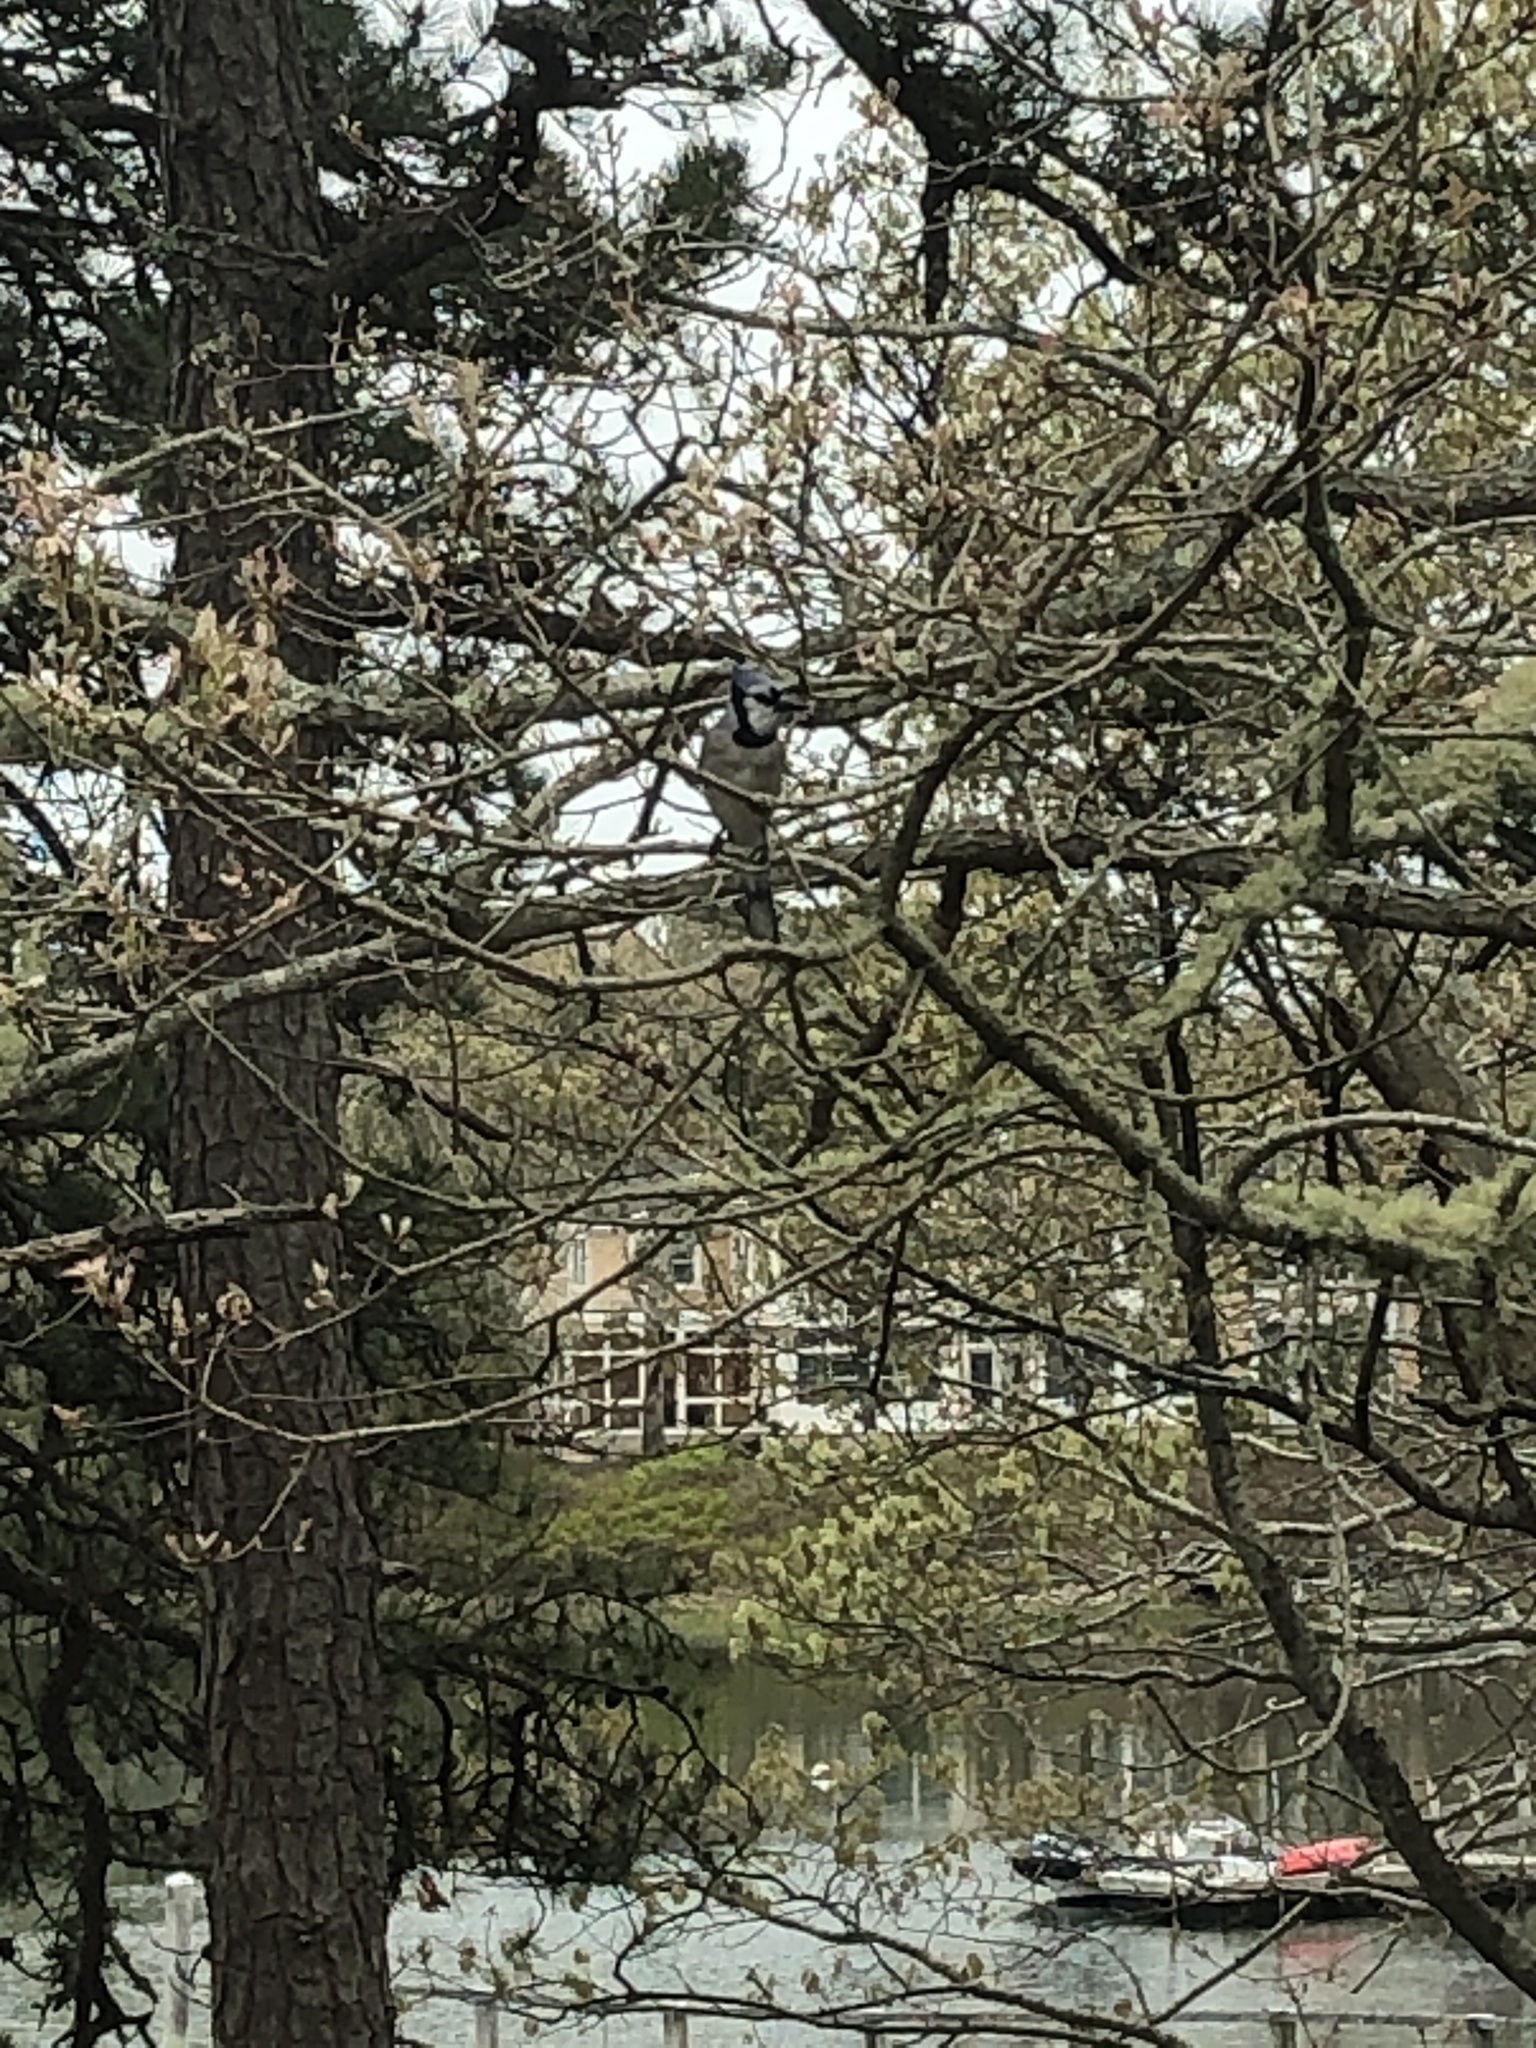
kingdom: Animalia
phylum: Chordata
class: Aves
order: Passeriformes
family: Corvidae
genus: Cyanocitta
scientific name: Cyanocitta cristata
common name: Blue jay
